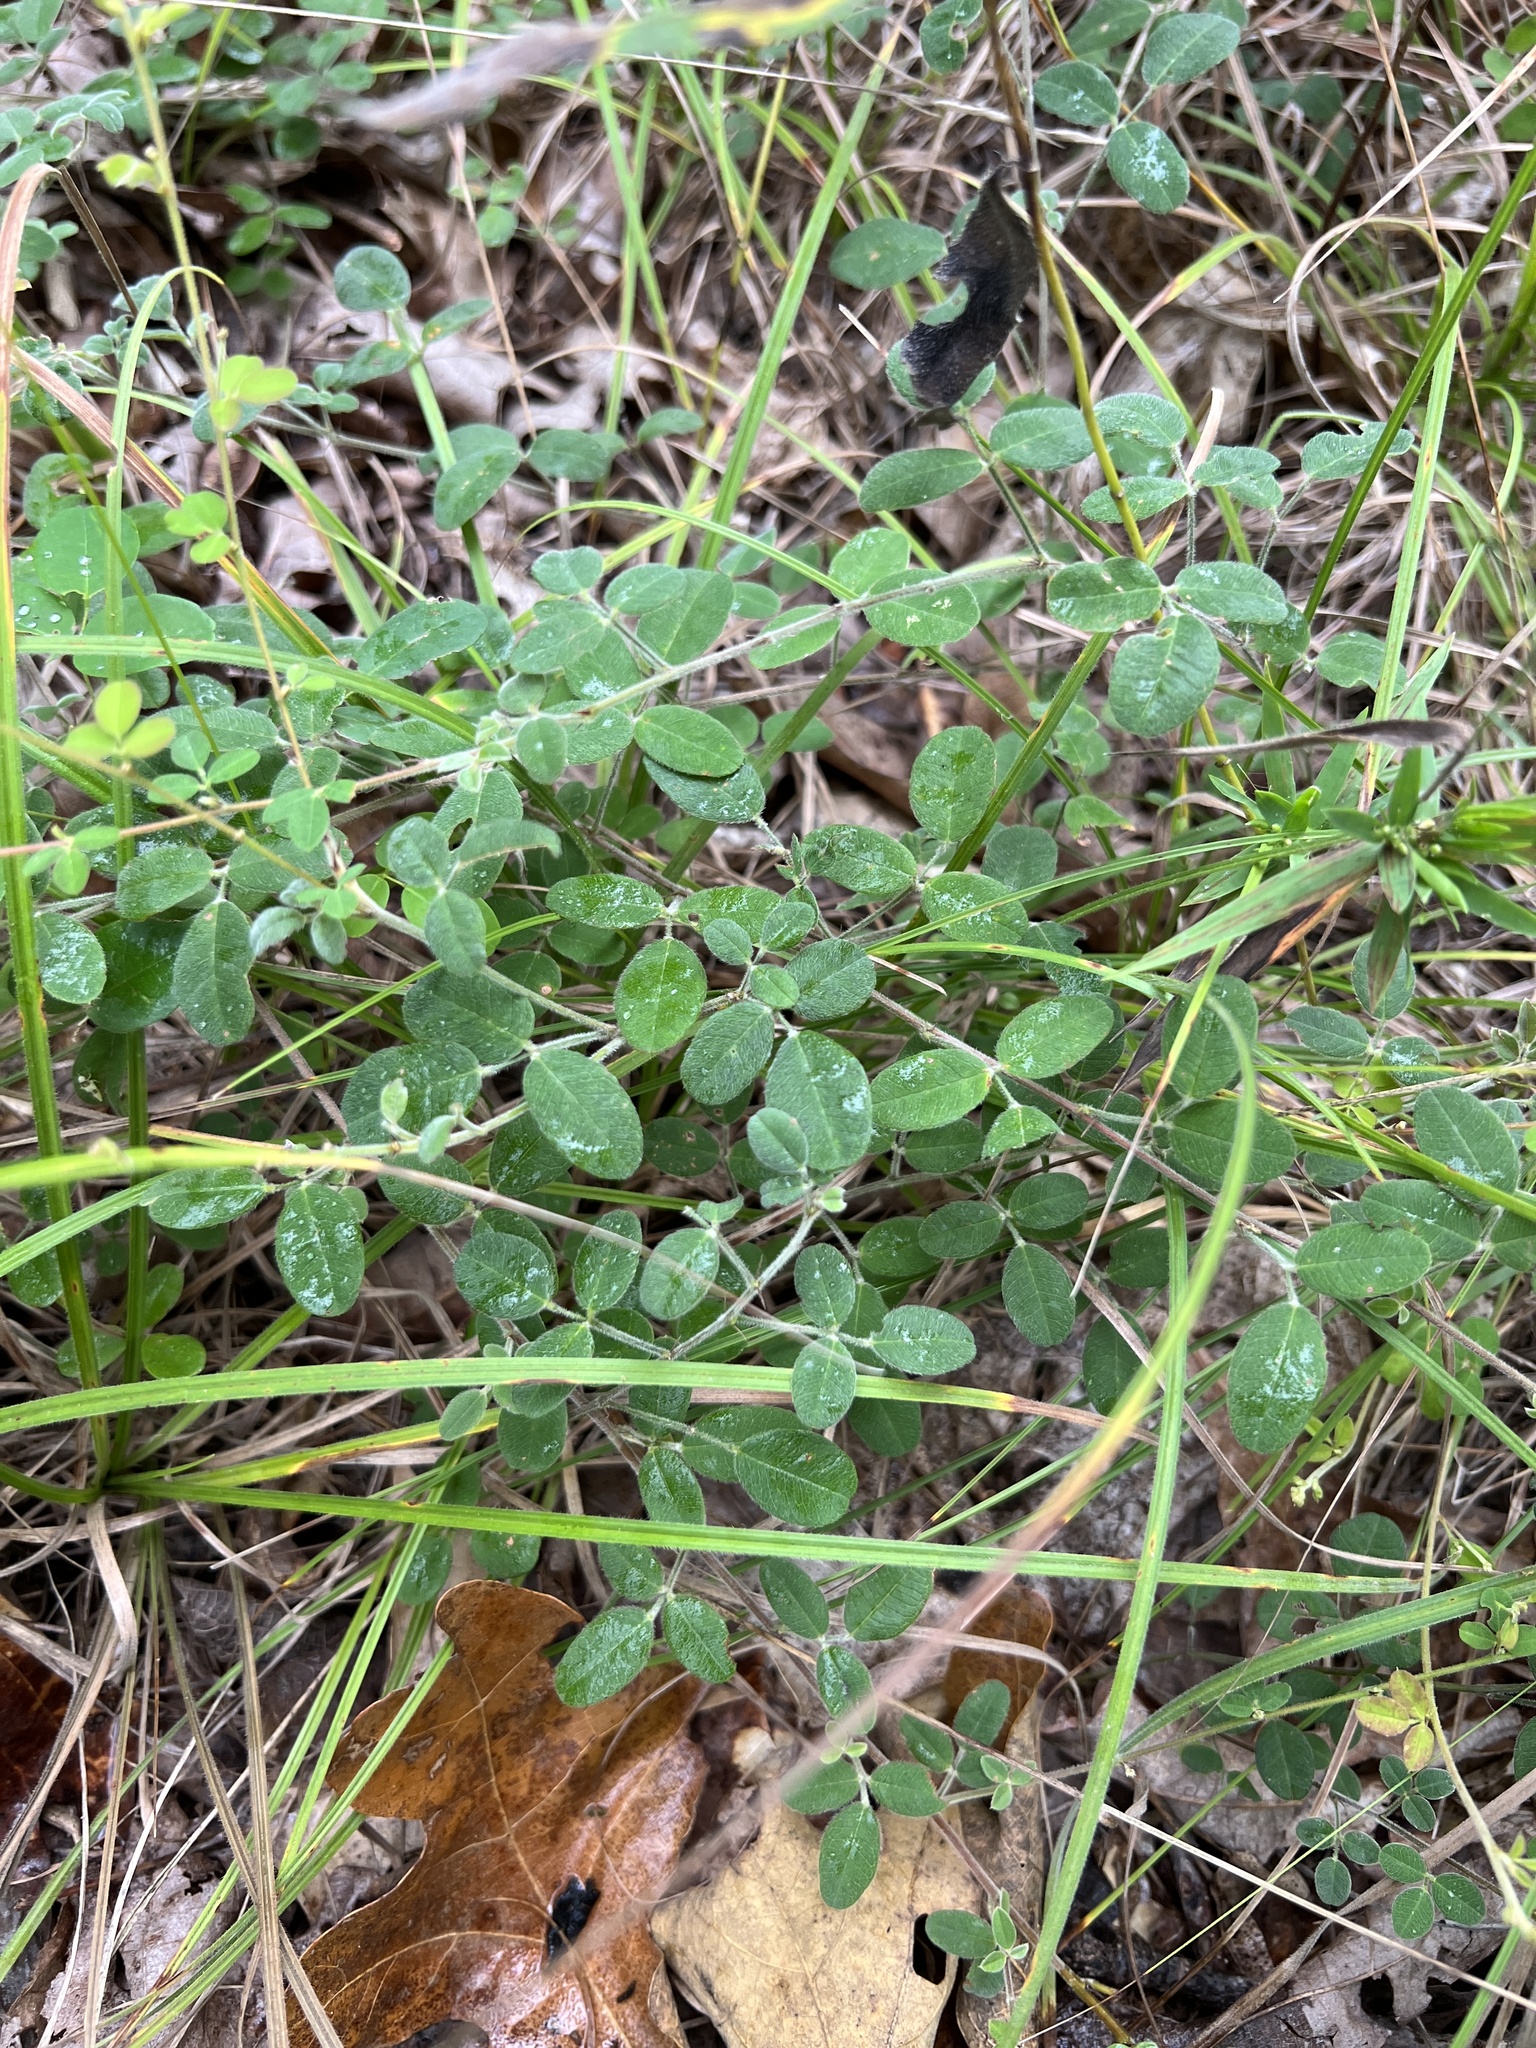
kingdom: Plantae
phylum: Tracheophyta
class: Magnoliopsida
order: Fabales
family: Fabaceae
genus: Lespedeza
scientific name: Lespedeza procumbens
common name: Downy trailing bush-clover
